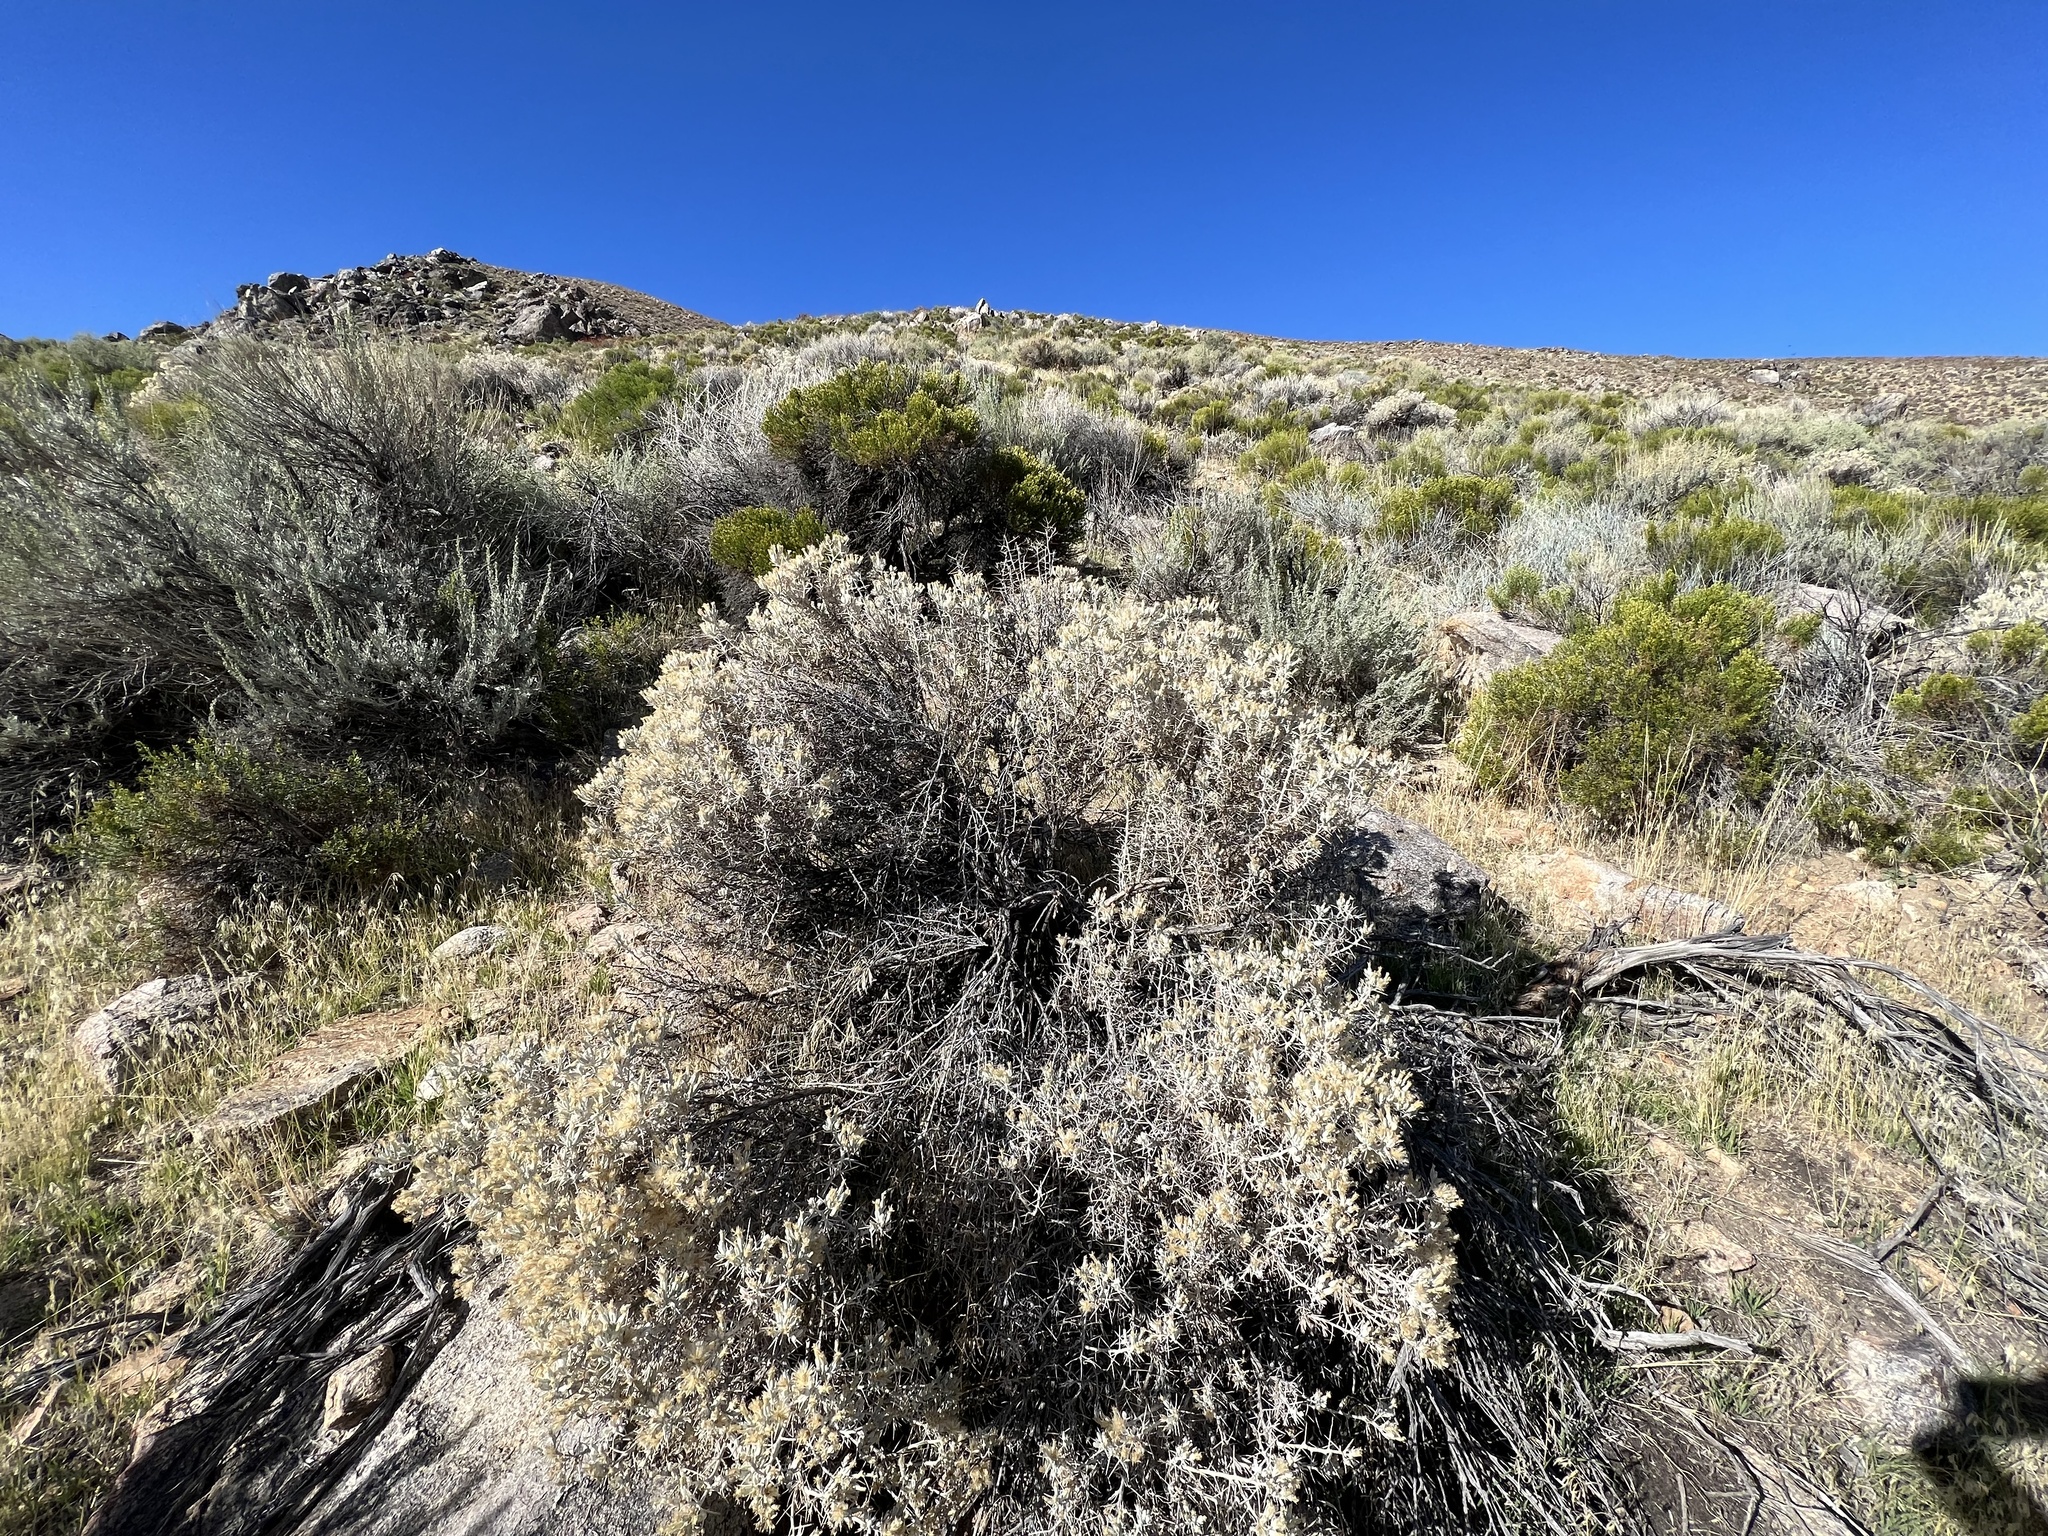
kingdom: Plantae
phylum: Tracheophyta
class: Magnoliopsida
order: Asterales
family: Asteraceae
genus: Tetradymia
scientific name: Tetradymia stenolepis
